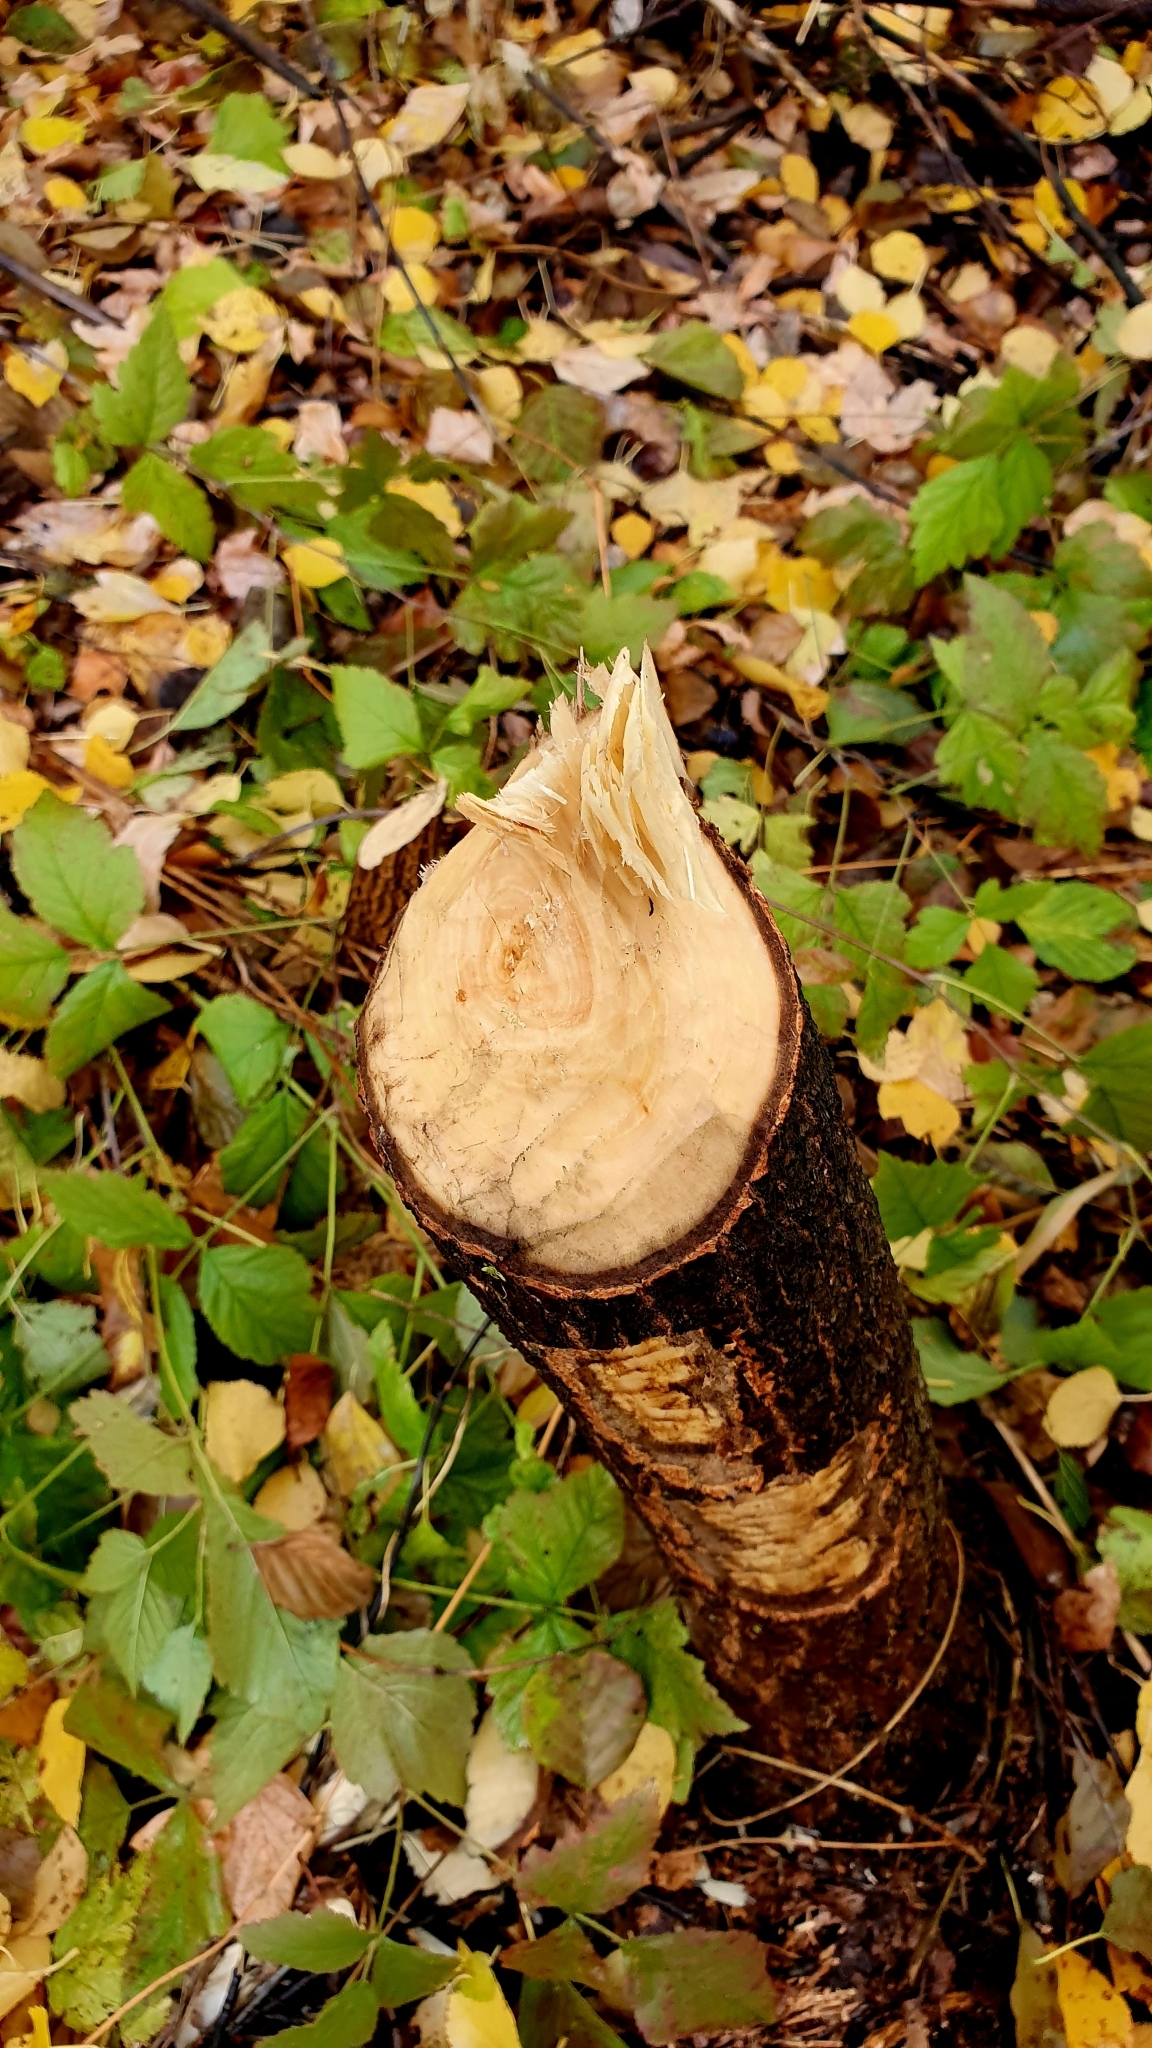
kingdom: Animalia
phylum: Chordata
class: Mammalia
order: Rodentia
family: Castoridae
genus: Castor
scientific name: Castor fiber
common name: Eurasian beaver
